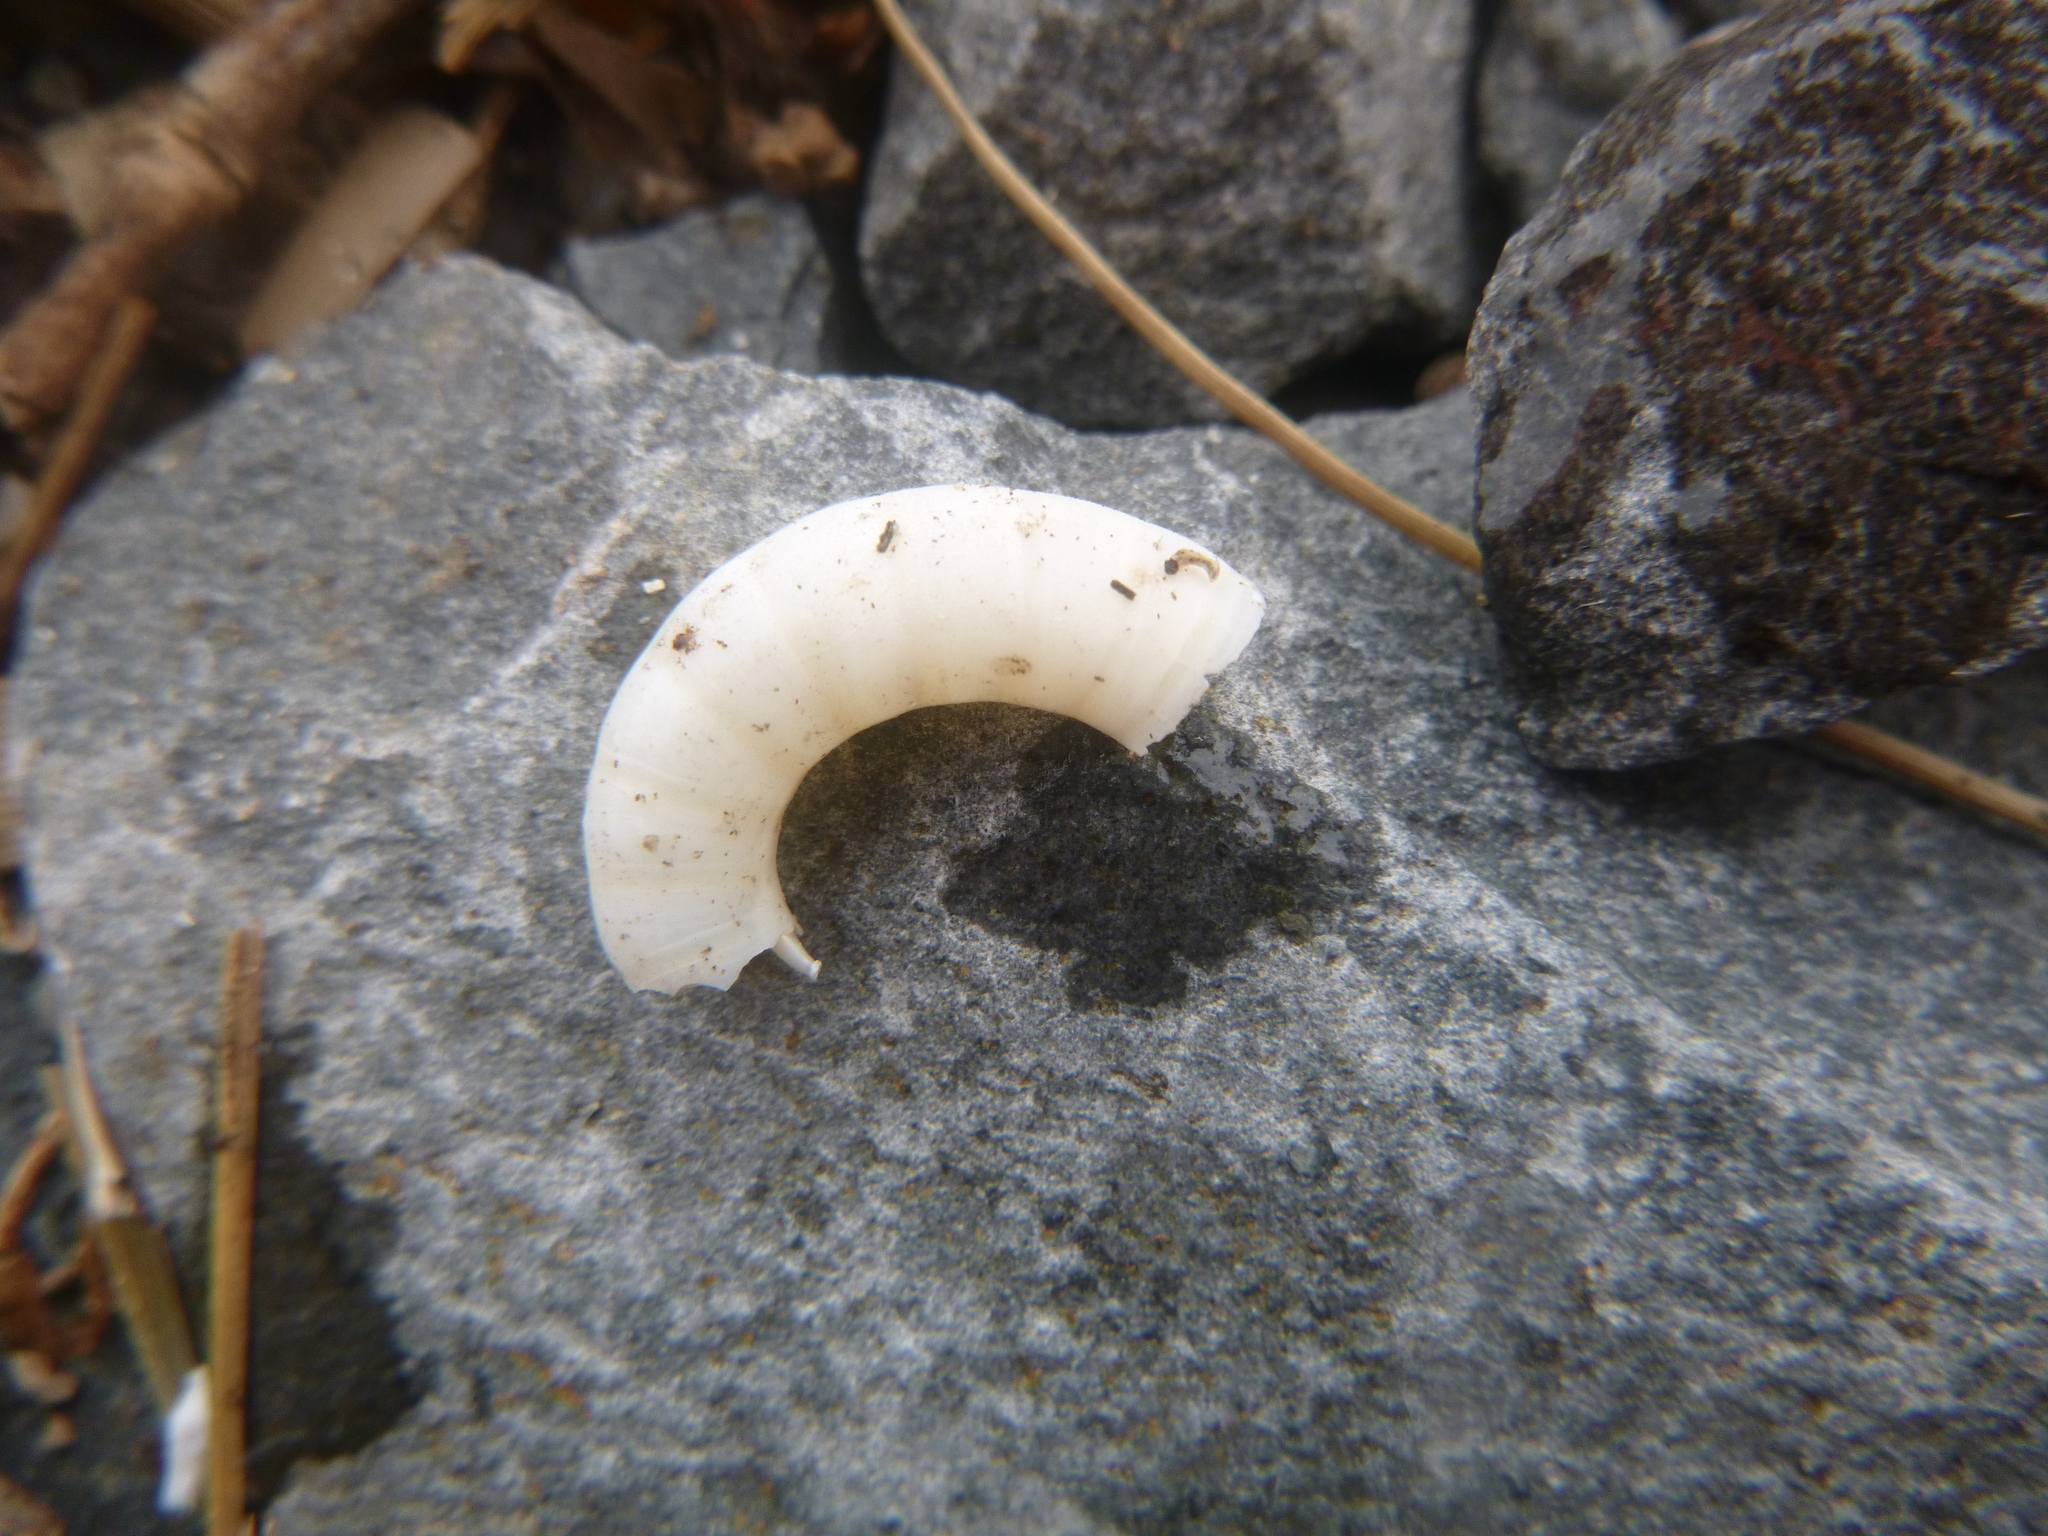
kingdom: Animalia
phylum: Mollusca
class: Cephalopoda
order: Spirulida
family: Spirulidae
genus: Spirula
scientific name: Spirula spirula
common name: Ram's horn squid
